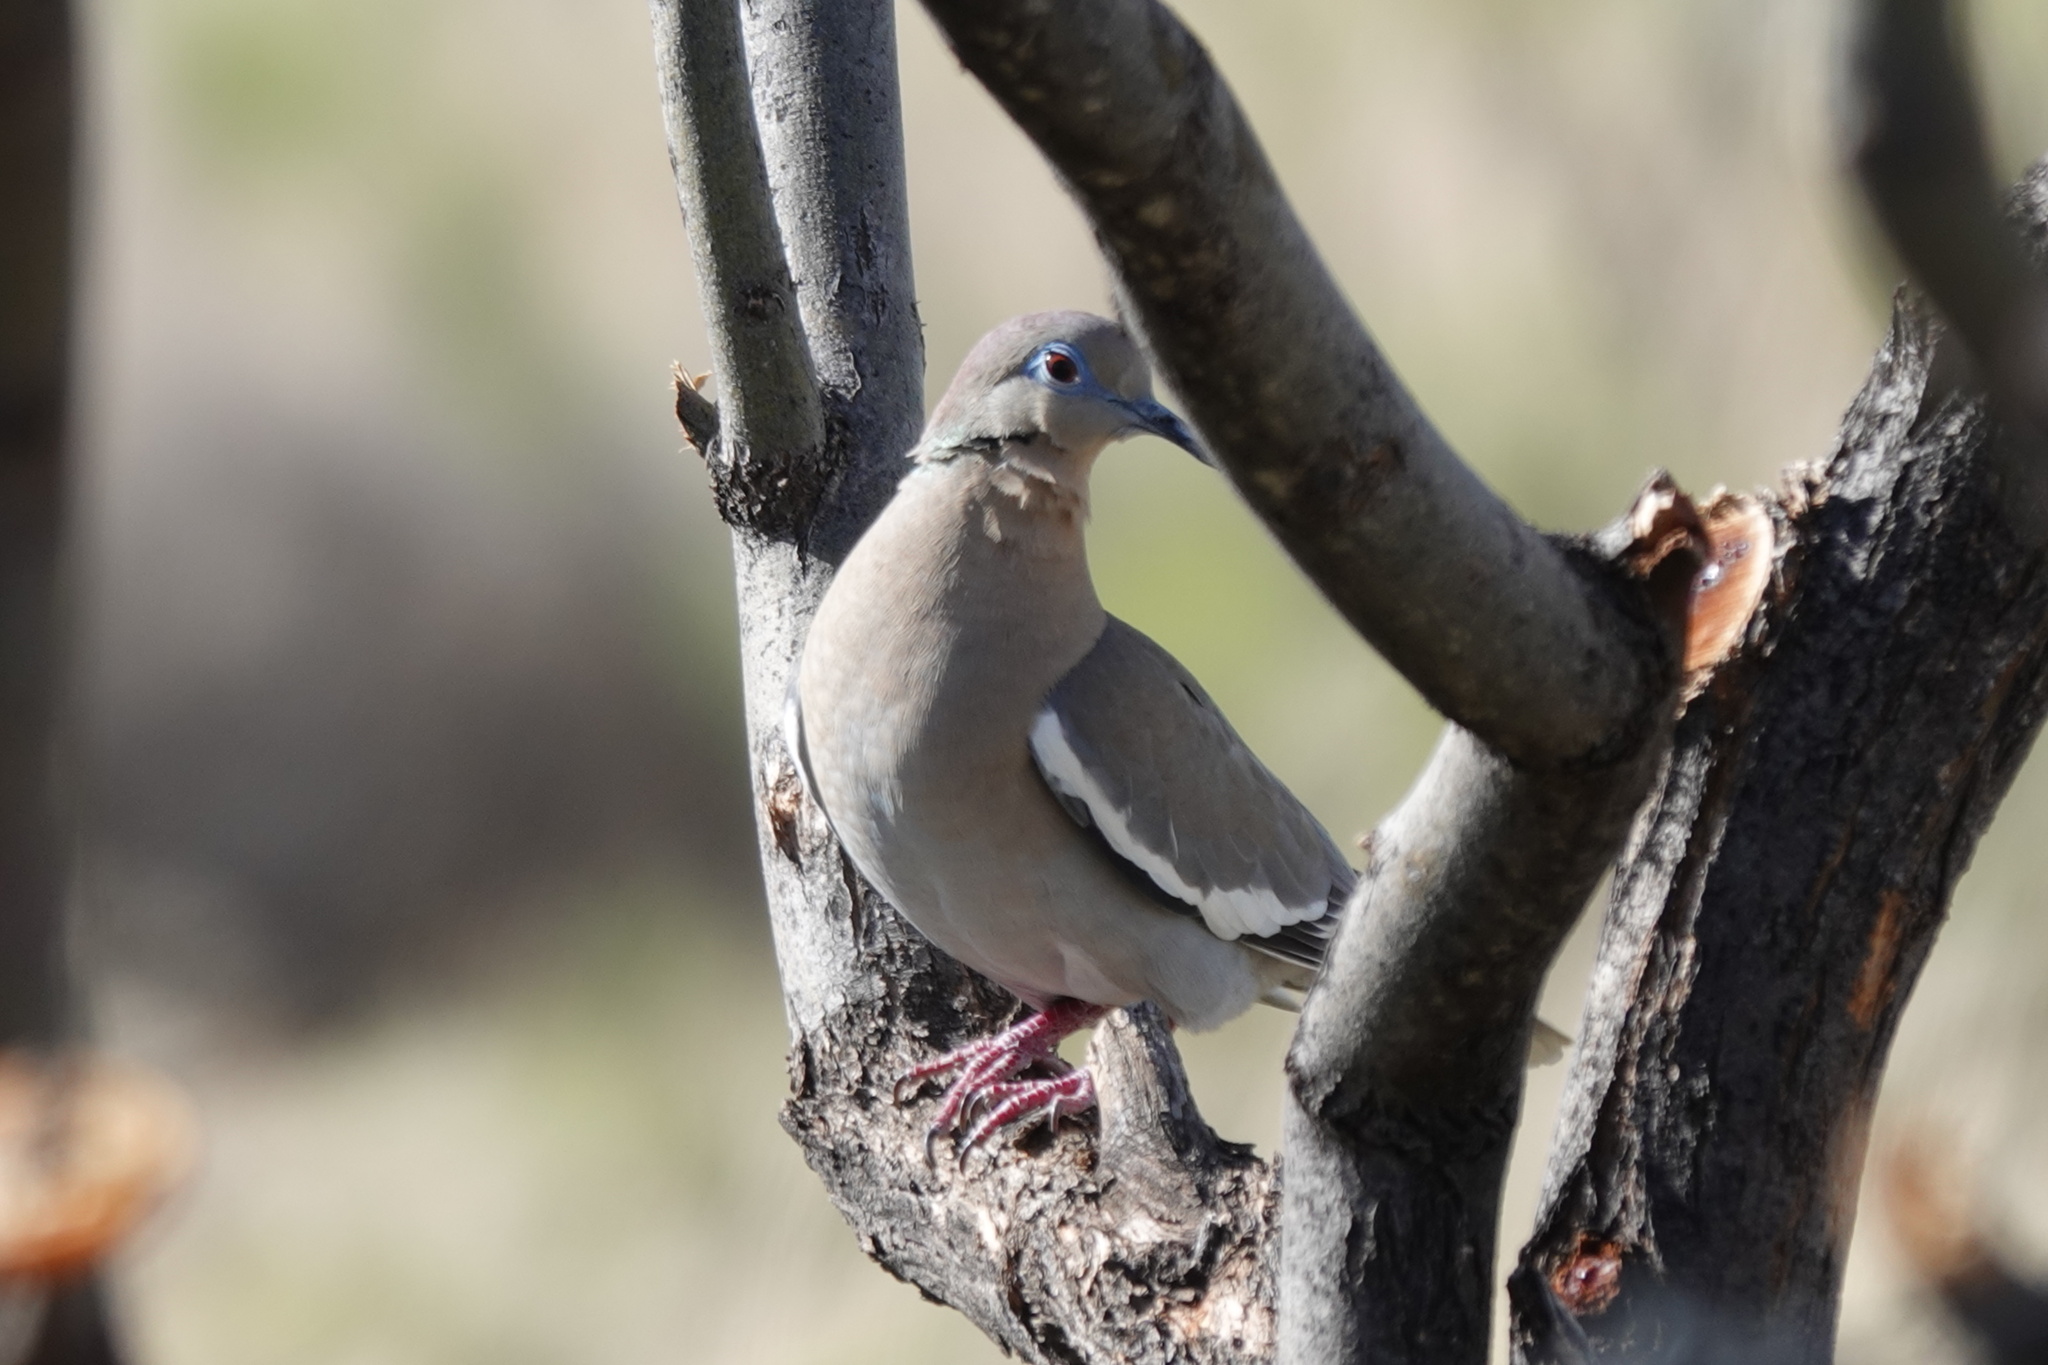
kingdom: Animalia
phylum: Chordata
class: Aves
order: Columbiformes
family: Columbidae
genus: Zenaida
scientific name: Zenaida asiatica
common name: White-winged dove
